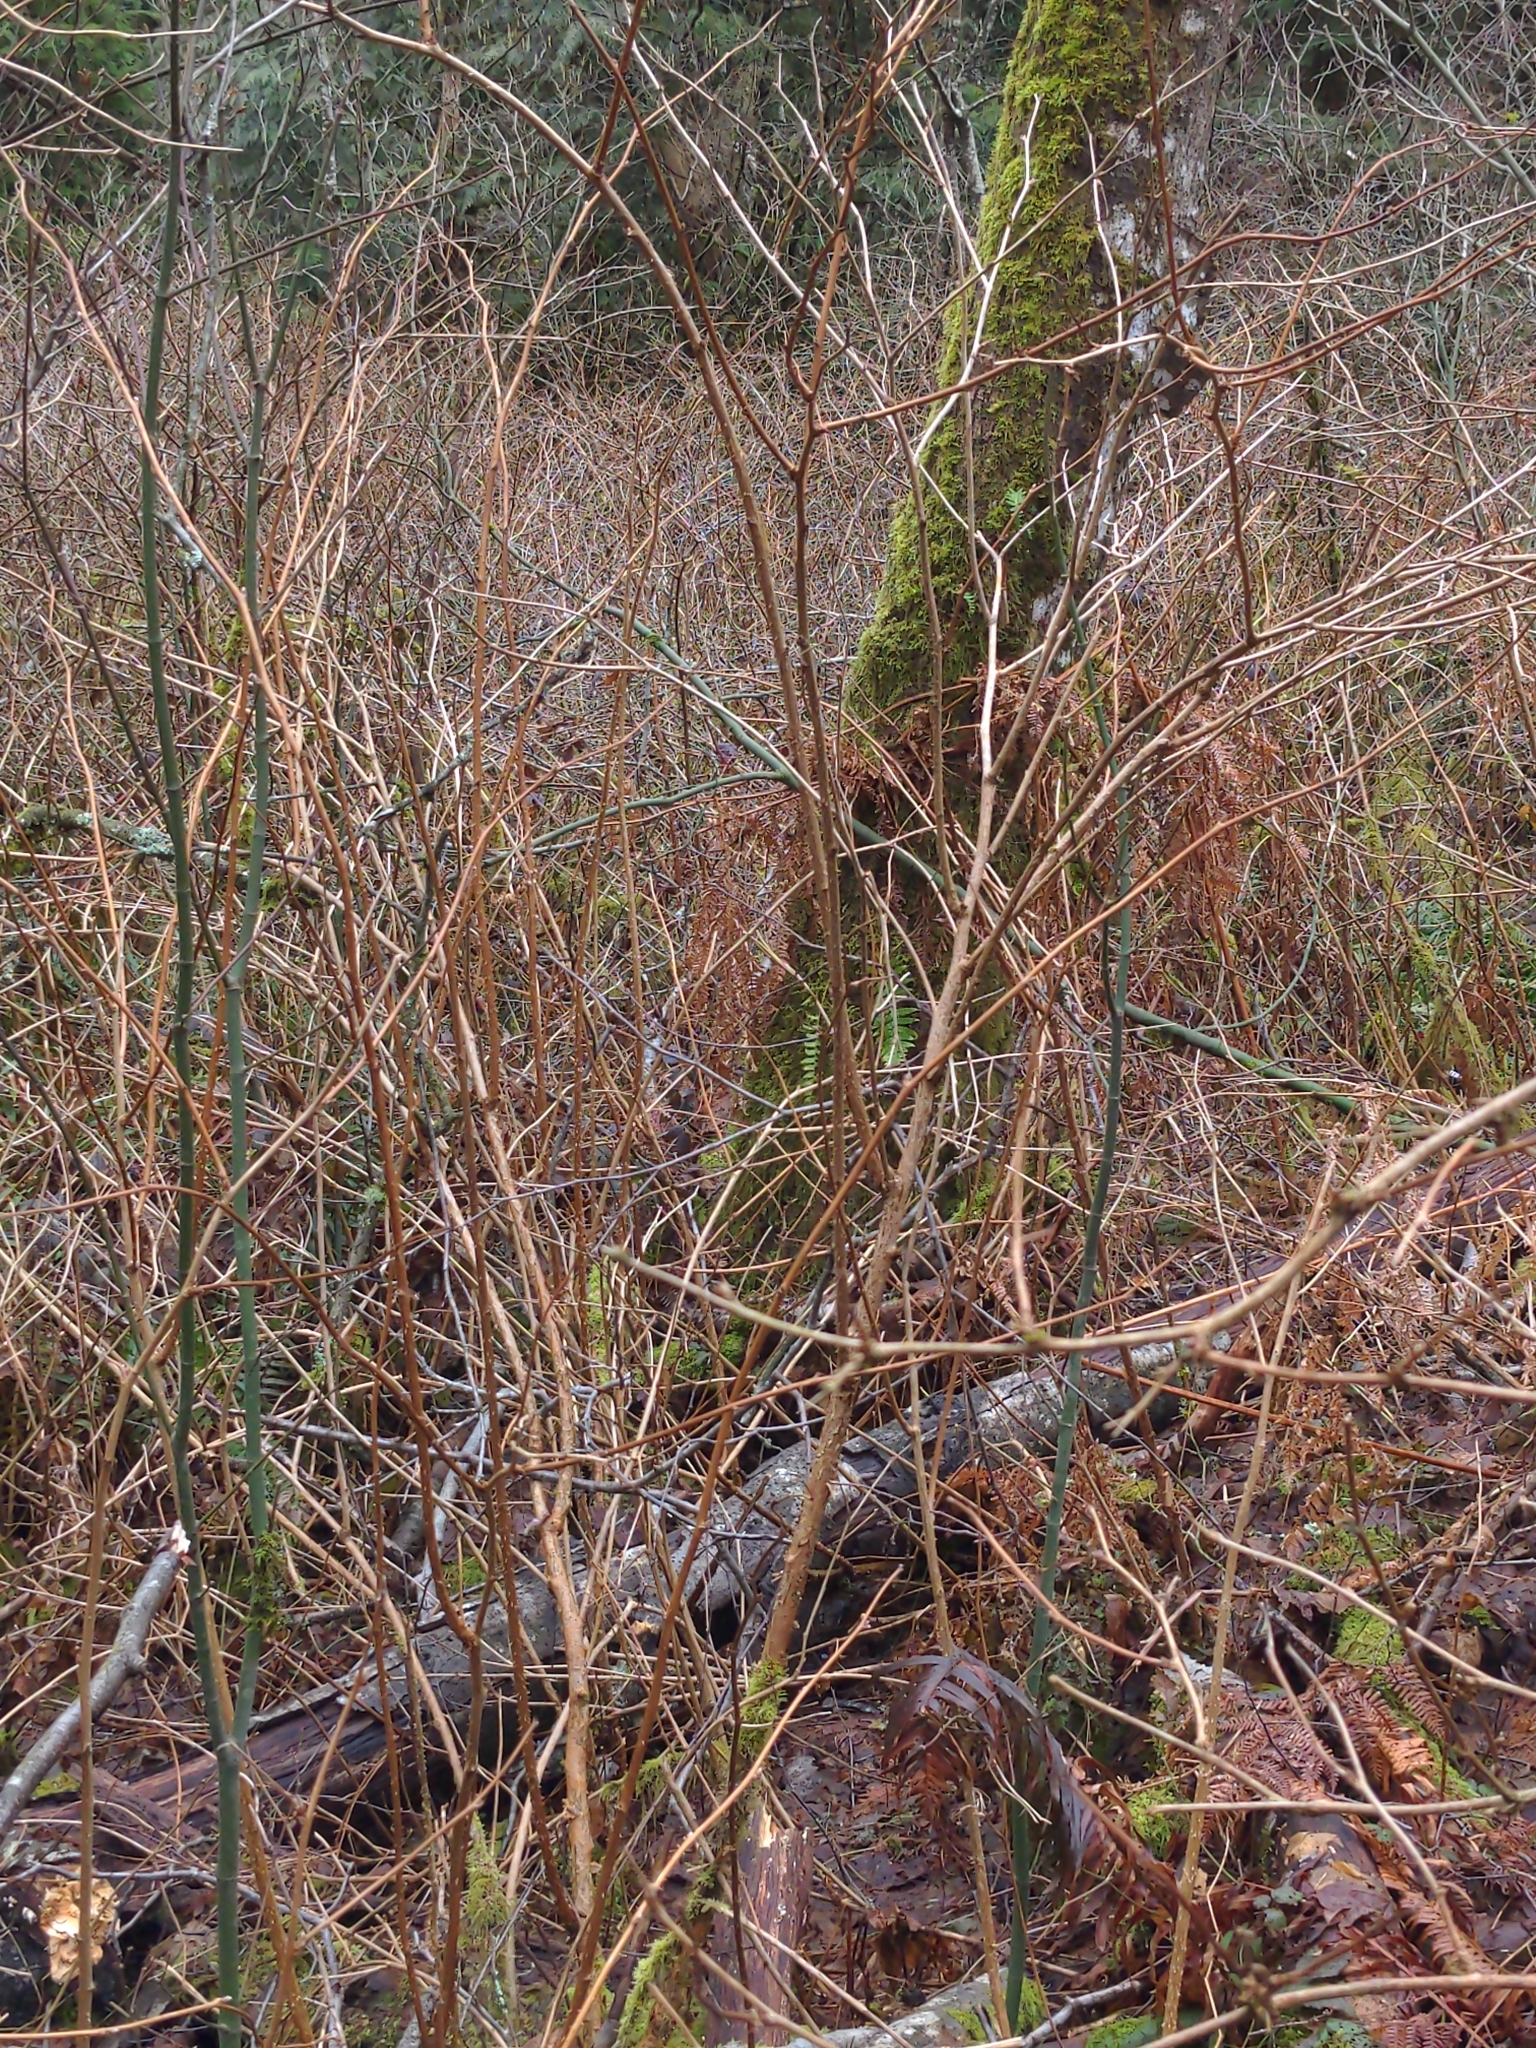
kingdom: Animalia
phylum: Chordata
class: Aves
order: Passeriformes
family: Troglodytidae
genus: Thryomanes
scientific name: Thryomanes bewickii
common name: Bewick's wren
